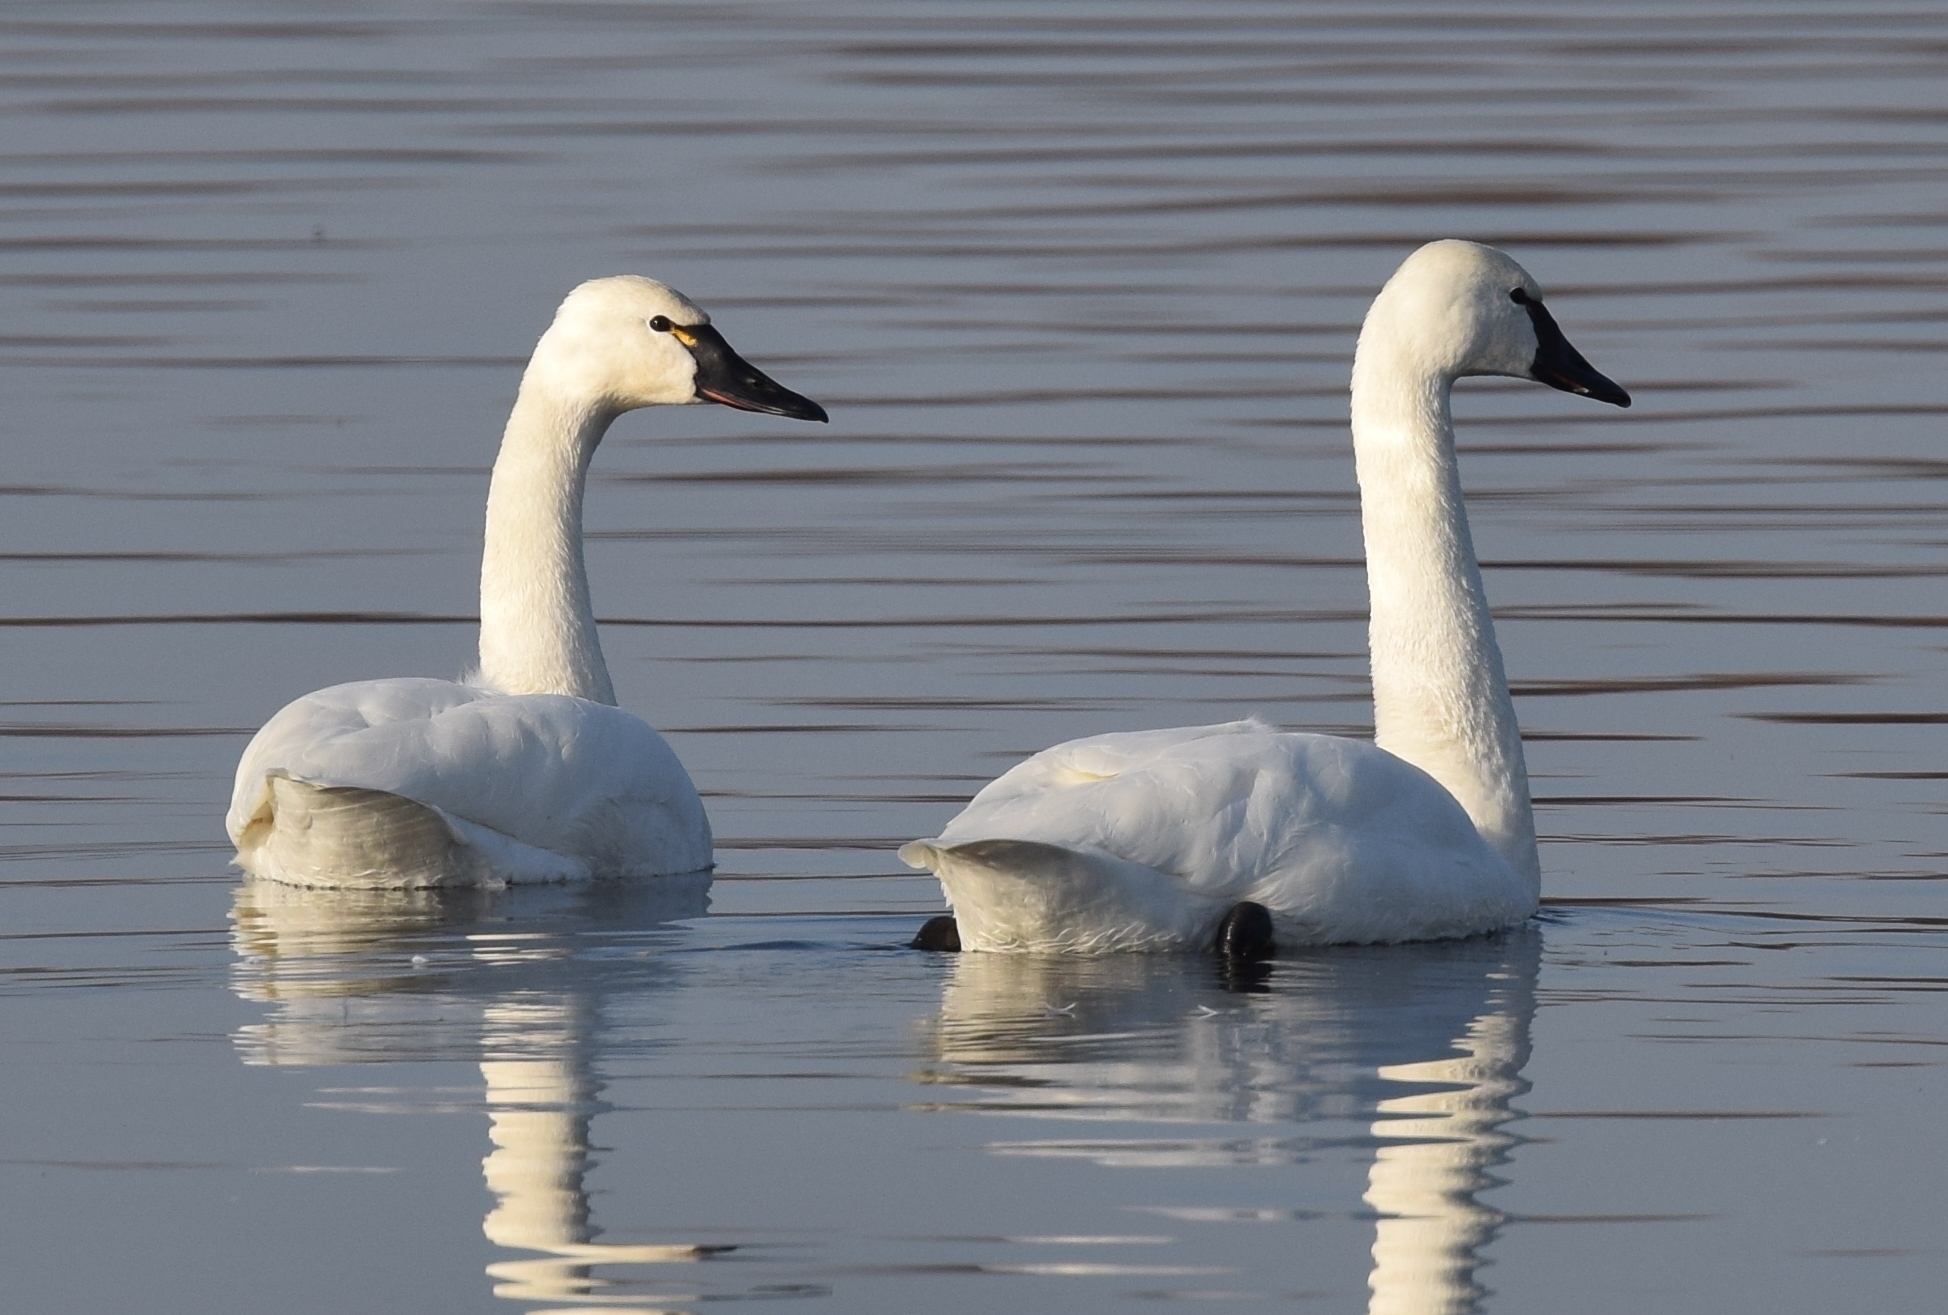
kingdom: Animalia
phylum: Chordata
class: Aves
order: Anseriformes
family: Anatidae
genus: Cygnus
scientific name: Cygnus columbianus
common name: Tundra swan
